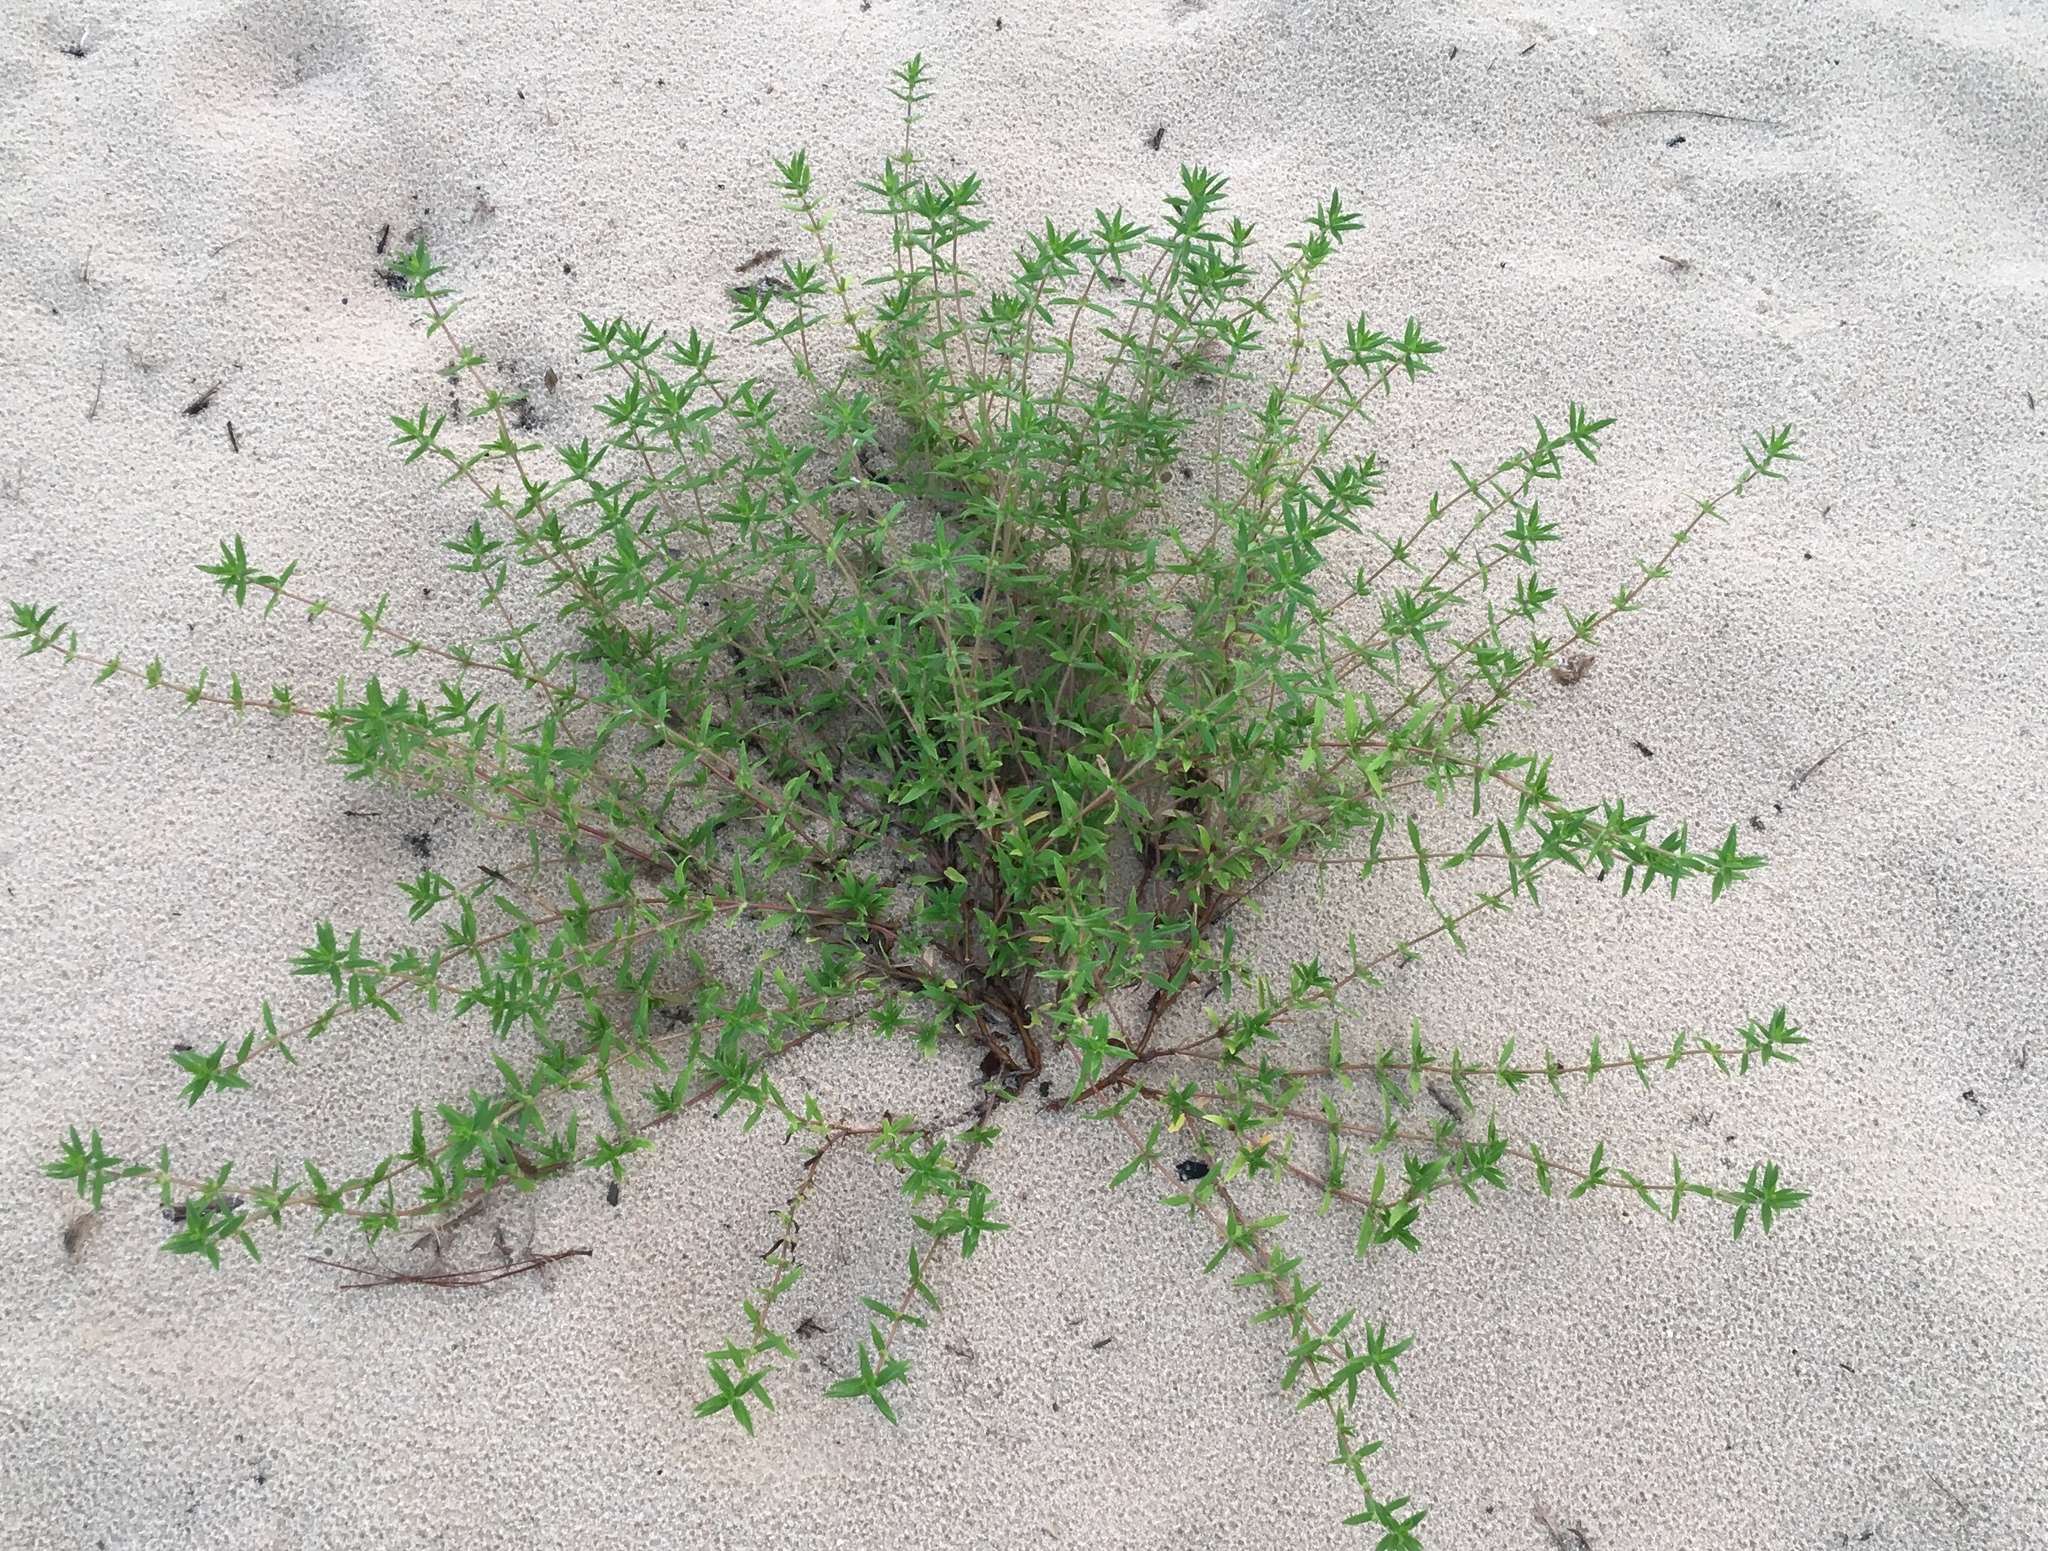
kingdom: Plantae
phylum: Tracheophyta
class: Magnoliopsida
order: Gentianales
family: Rubiaceae
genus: Hexasepalum
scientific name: Hexasepalum teres
